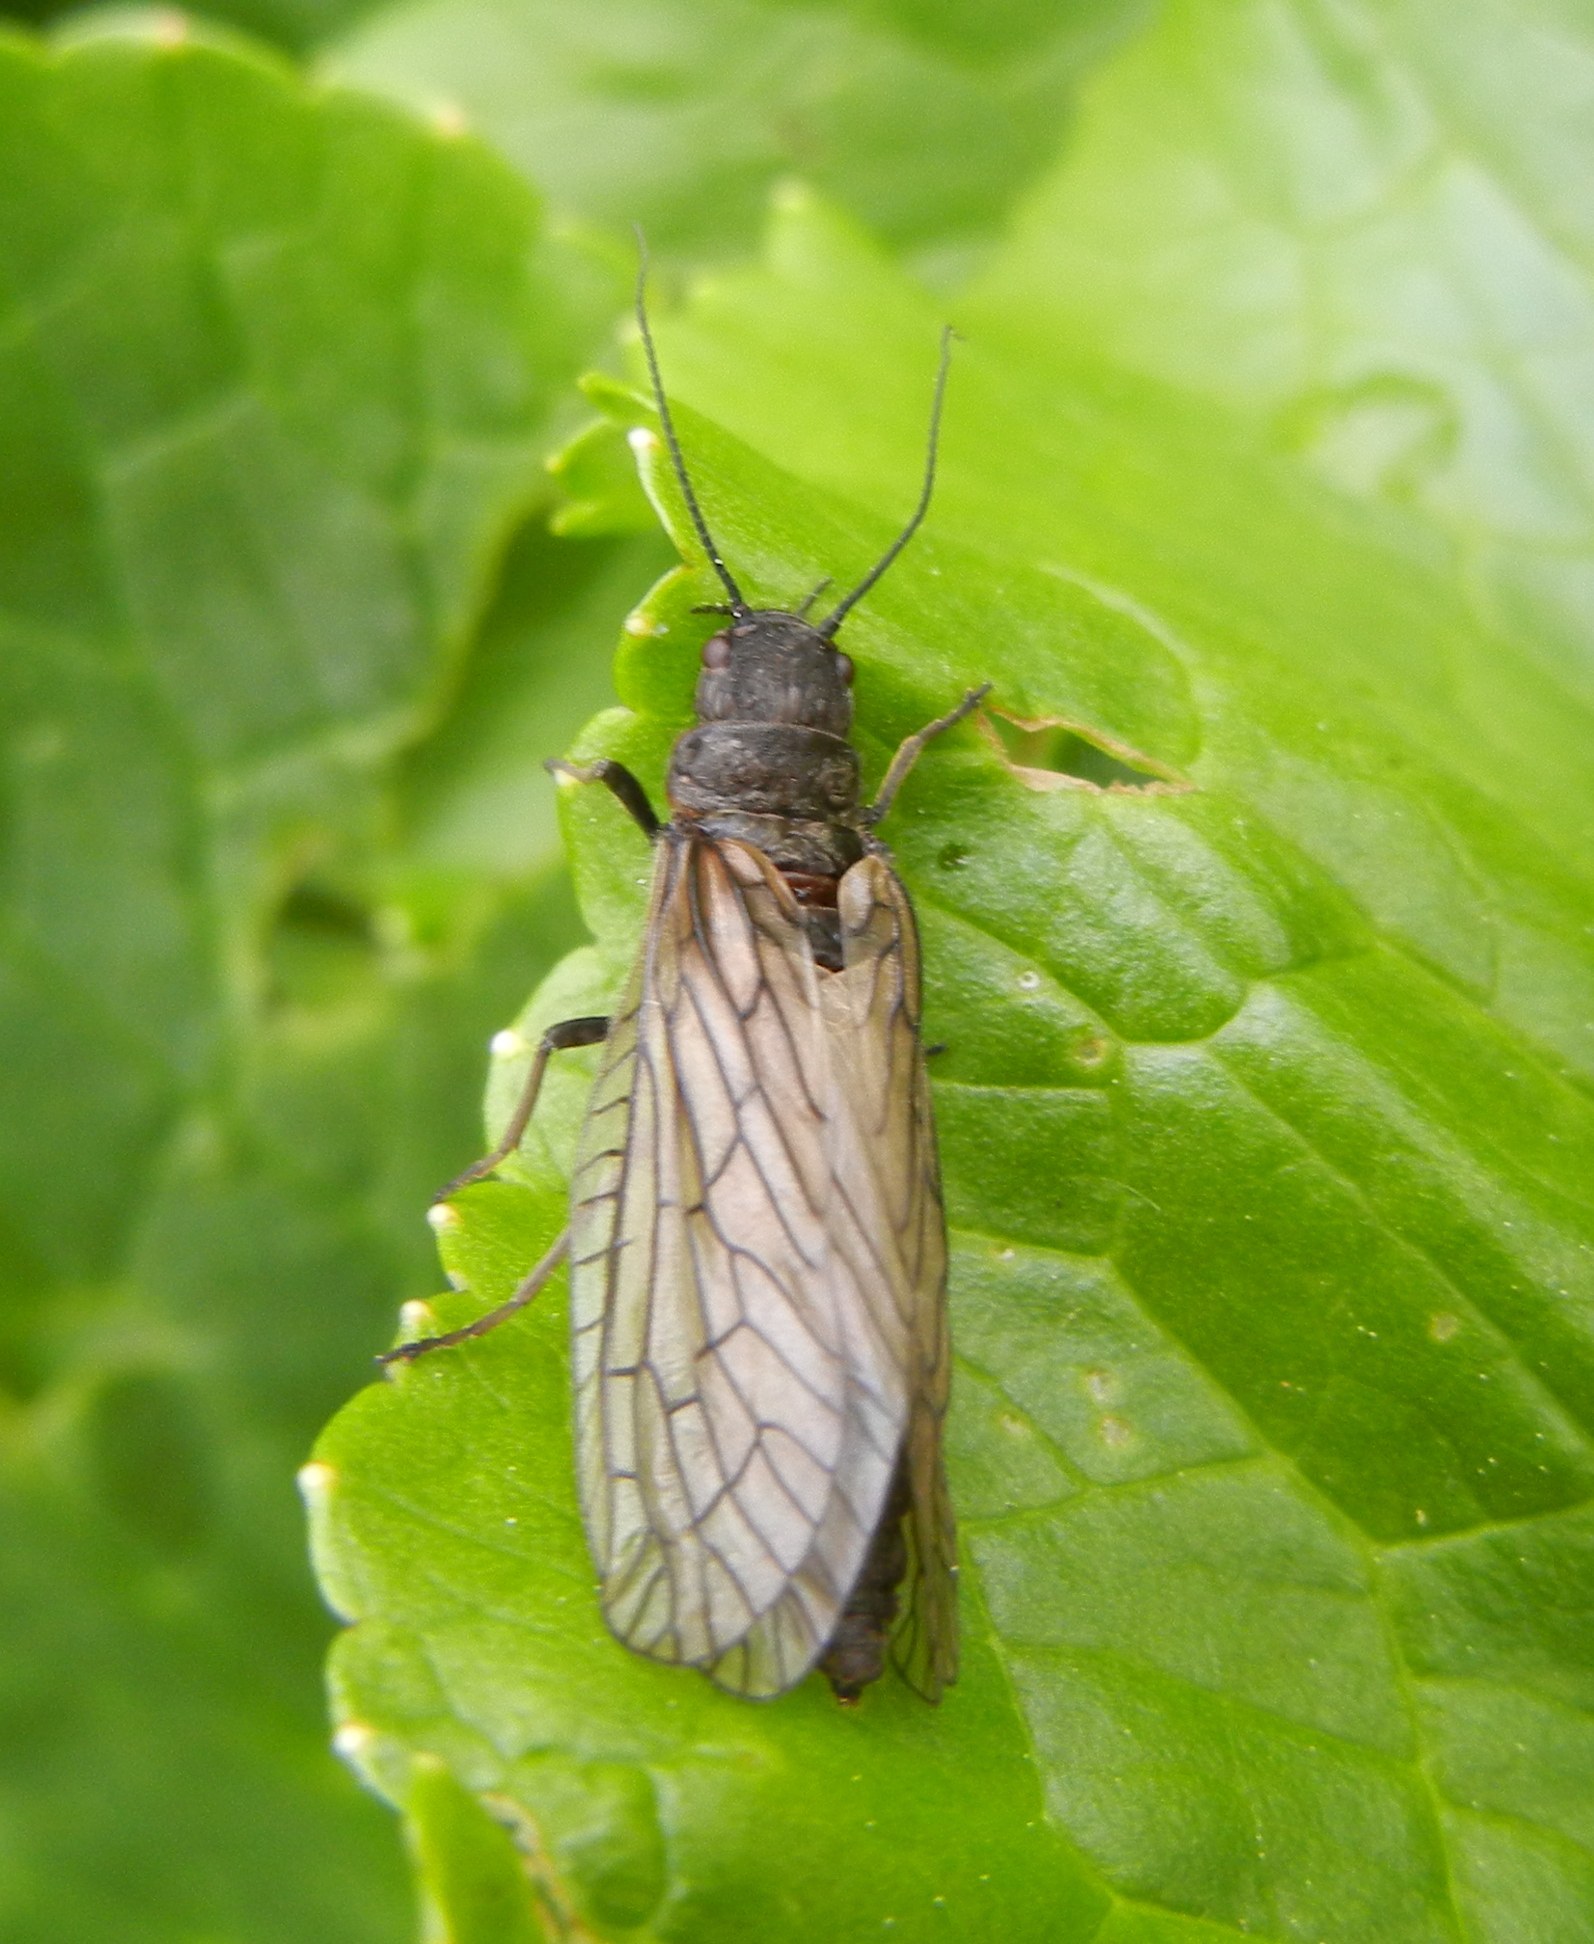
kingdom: Animalia
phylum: Arthropoda
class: Insecta
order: Megaloptera
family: Sialidae
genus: Sialis
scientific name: Sialis
